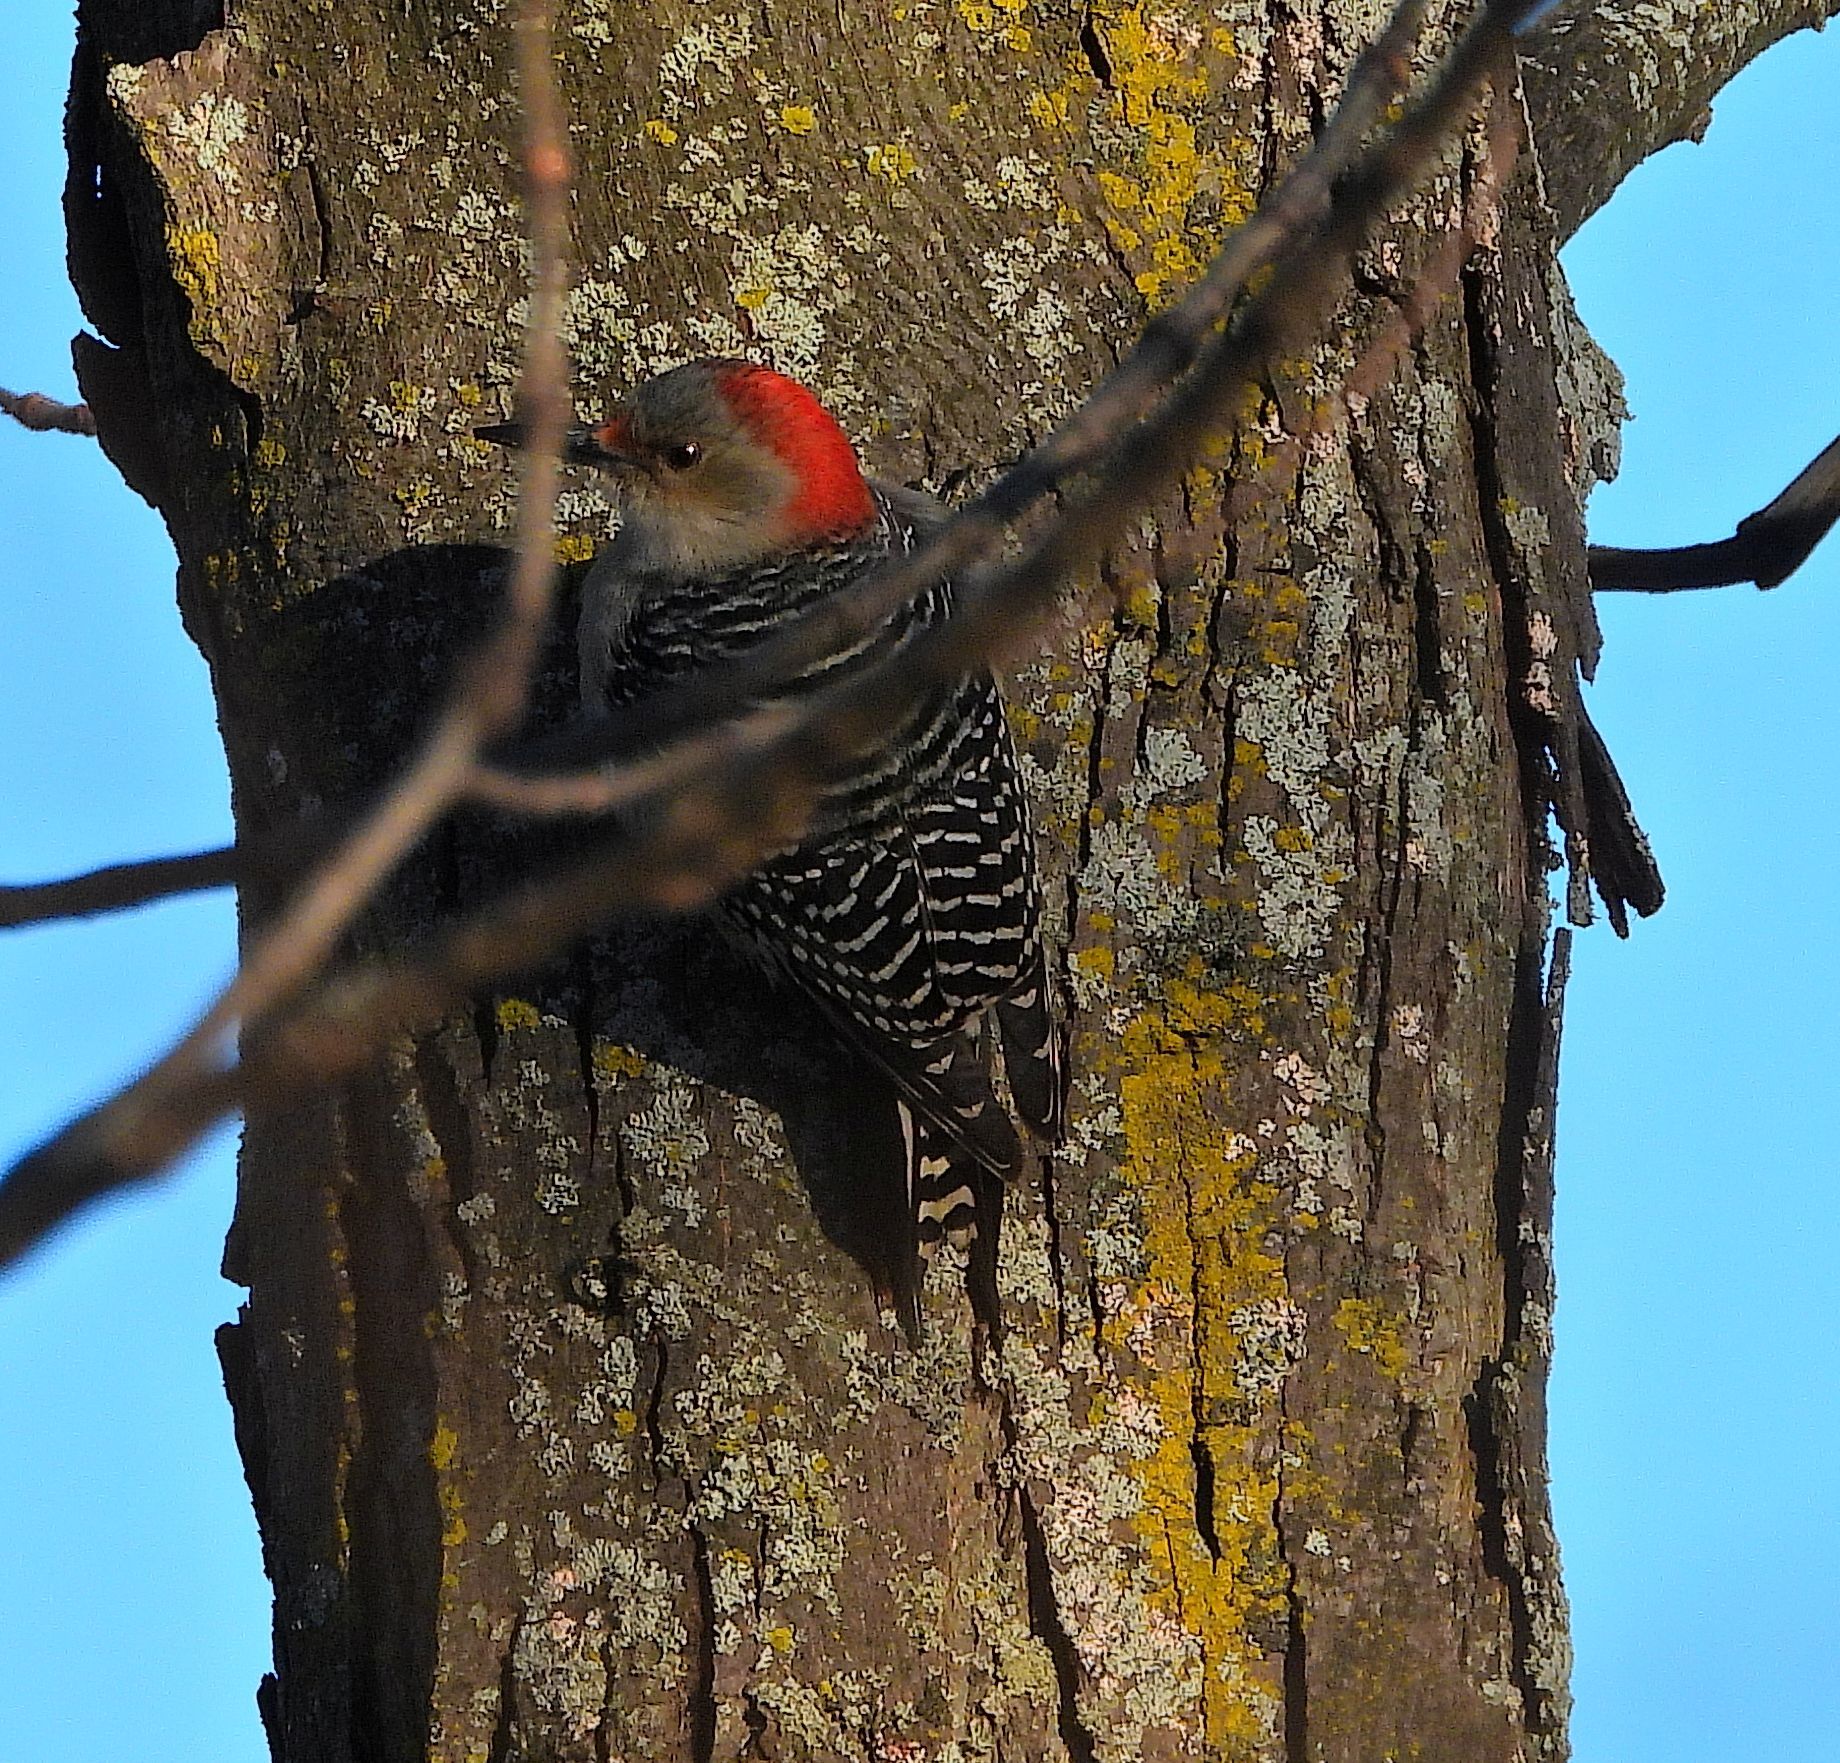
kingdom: Animalia
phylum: Chordata
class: Aves
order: Piciformes
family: Picidae
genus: Melanerpes
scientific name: Melanerpes carolinus
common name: Red-bellied woodpecker
